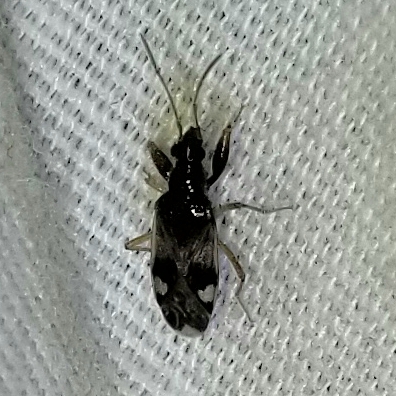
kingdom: Animalia
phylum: Arthropoda
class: Insecta
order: Hemiptera
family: Rhyparochromidae
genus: Pseudopamera
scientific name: Pseudopamera nitidula
